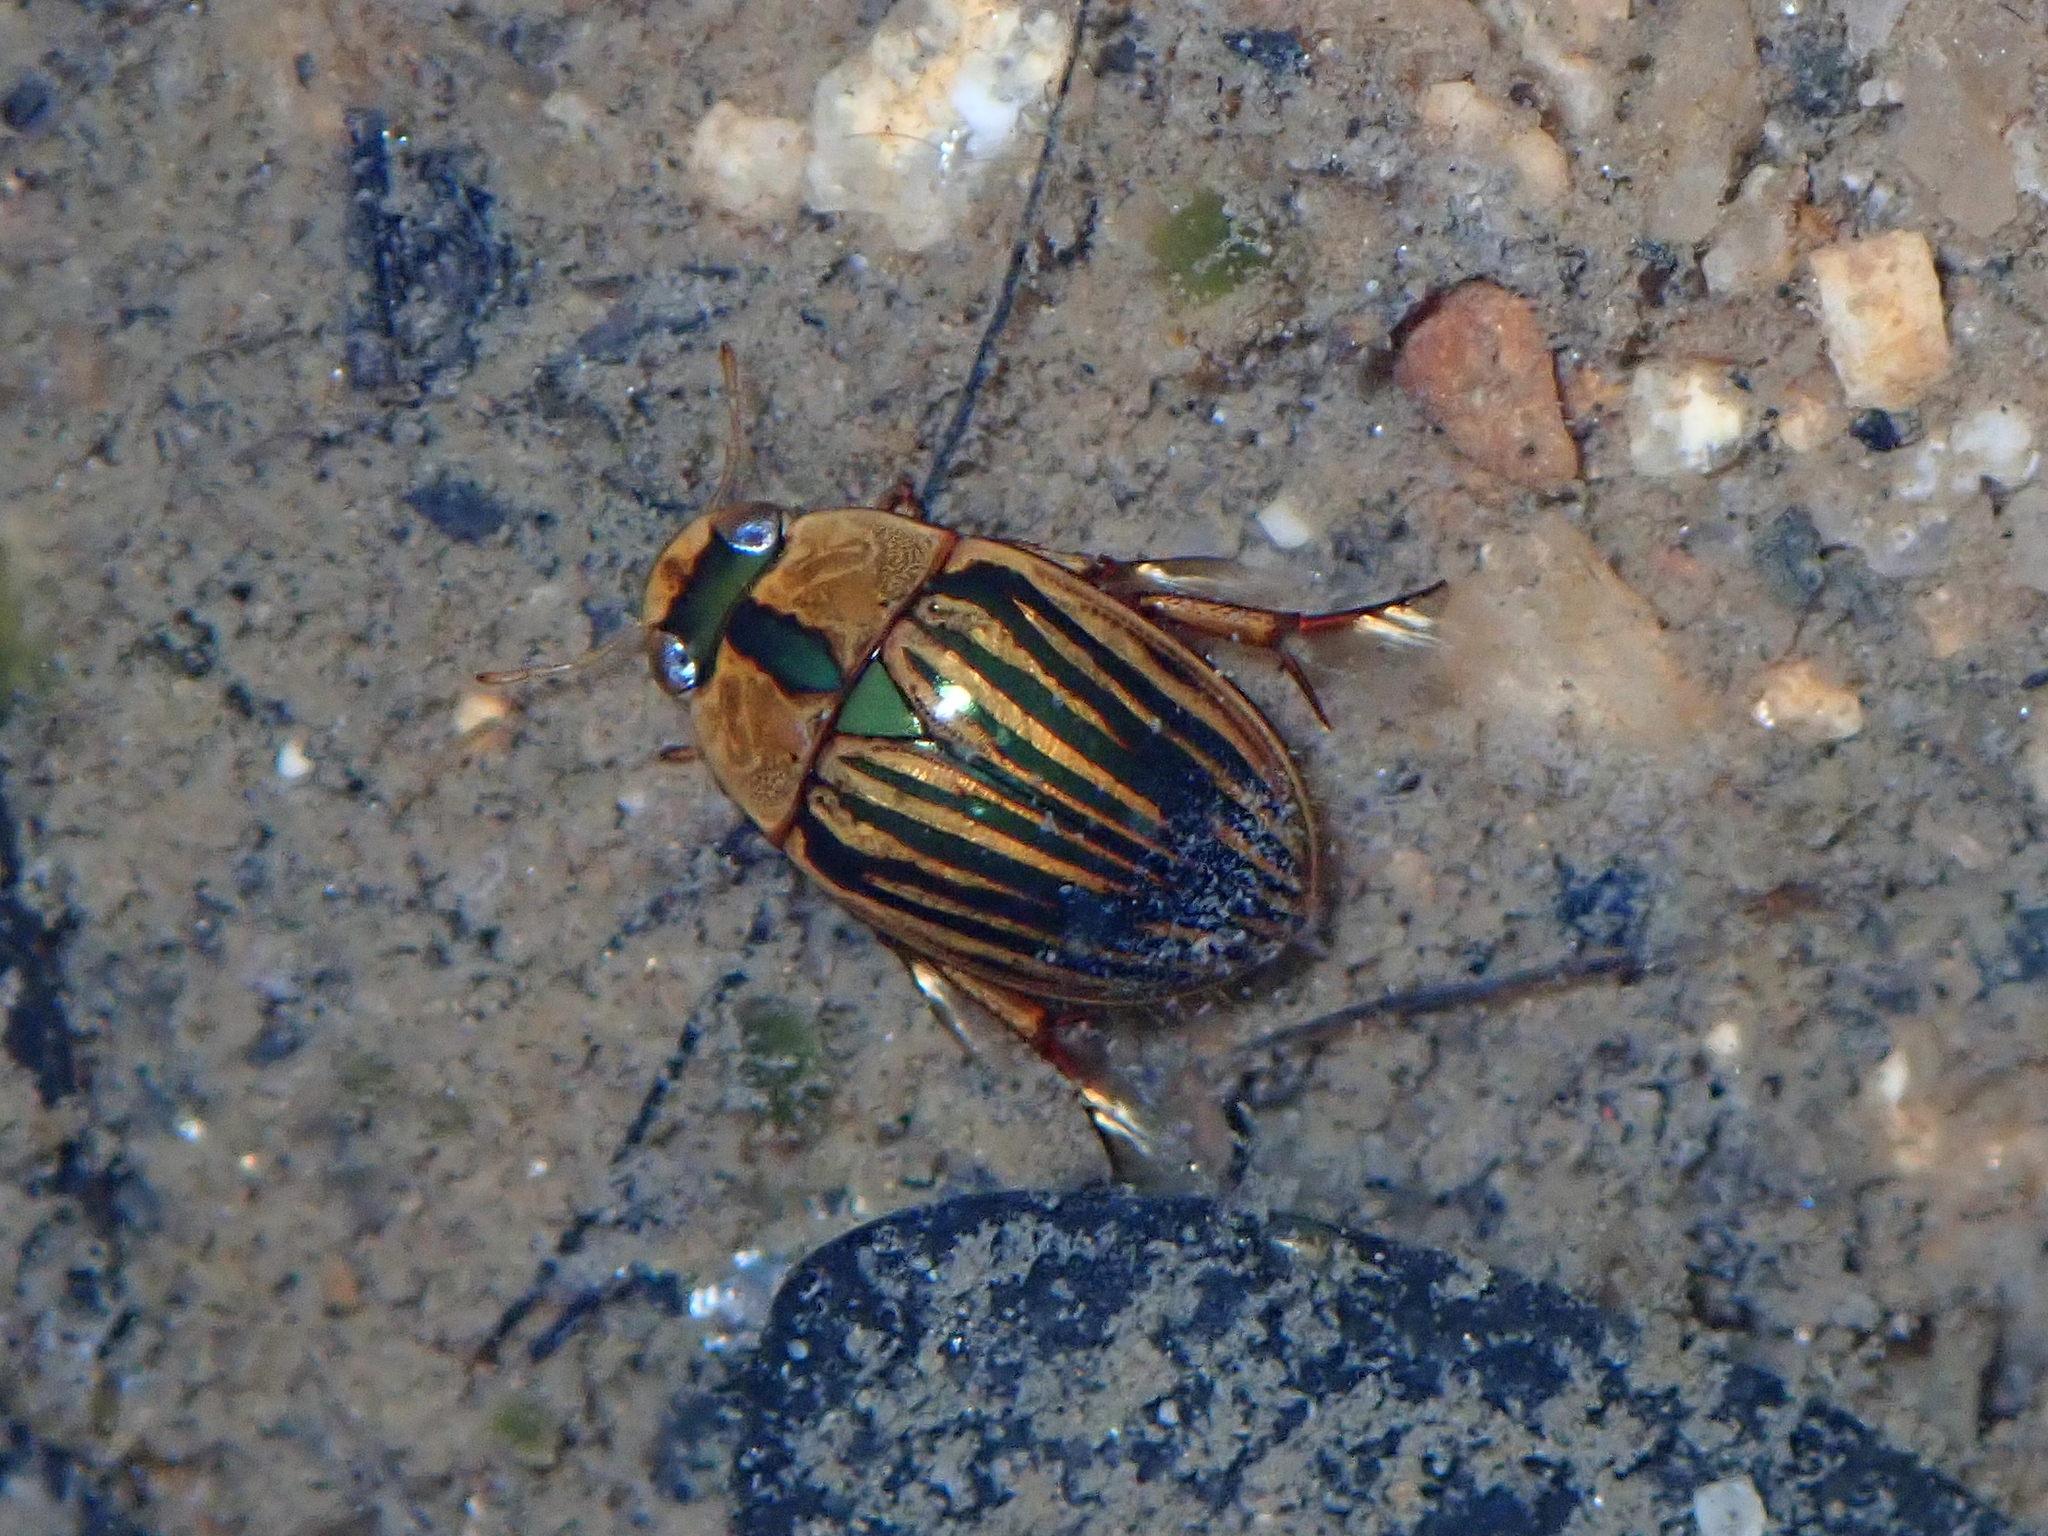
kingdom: Animalia
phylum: Arthropoda
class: Insecta
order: Coleoptera
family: Hydrophilidae
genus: Tropisternus
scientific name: Tropisternus collaris
